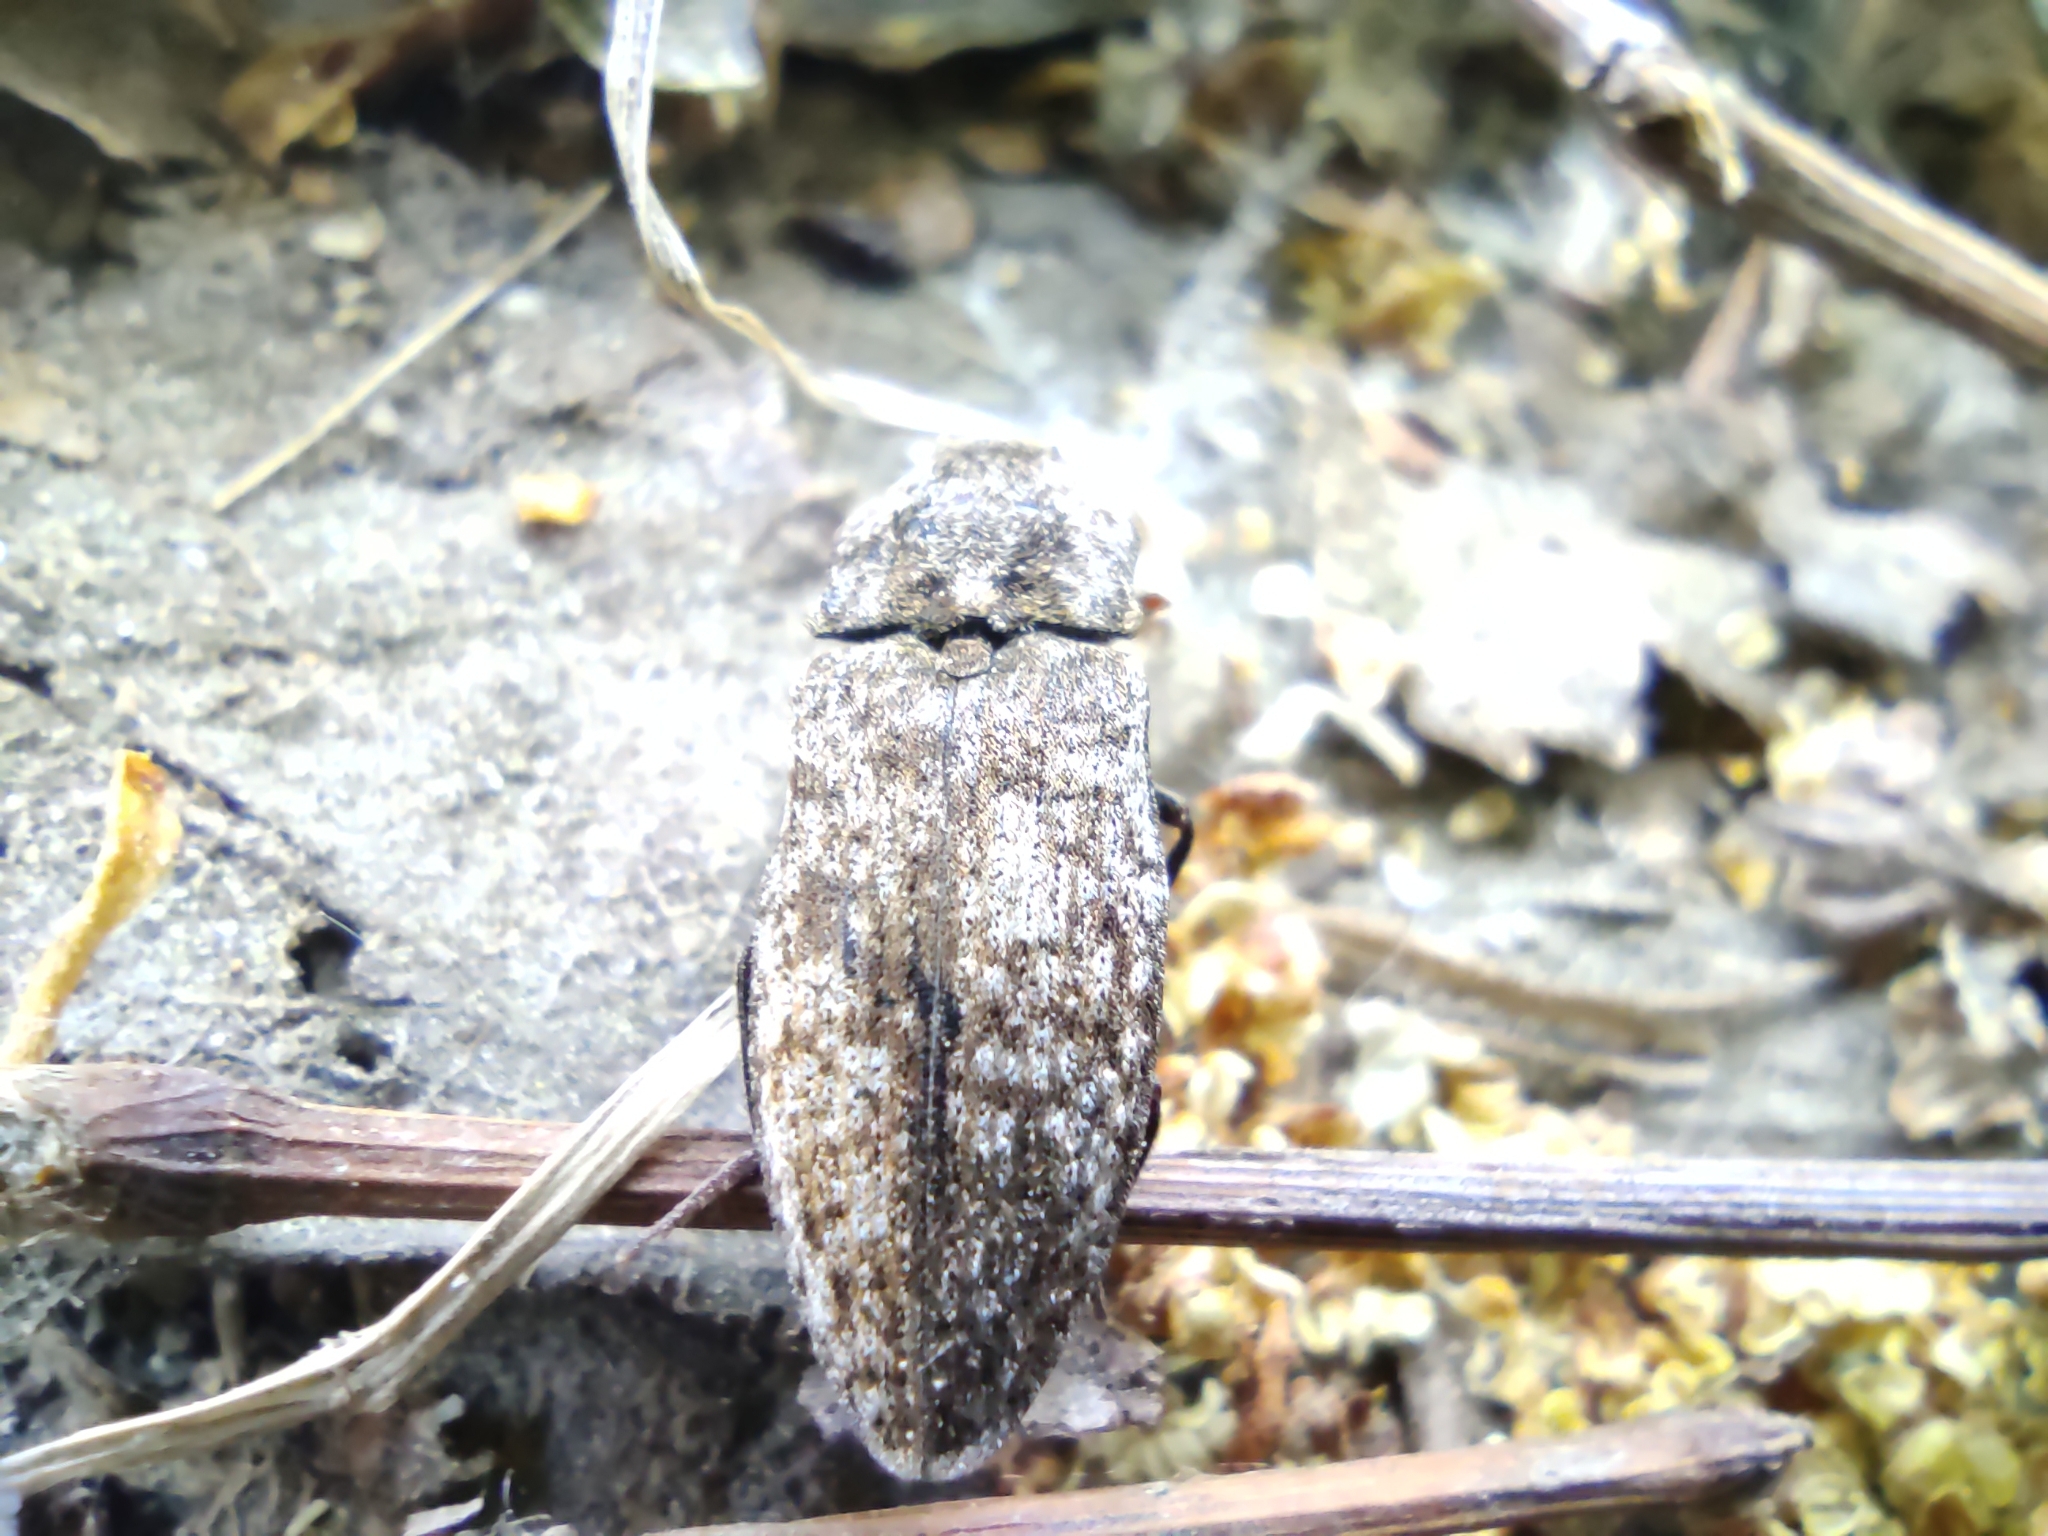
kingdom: Animalia
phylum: Arthropoda
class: Insecta
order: Coleoptera
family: Elateridae
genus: Agrypnus
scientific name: Agrypnus murinus
